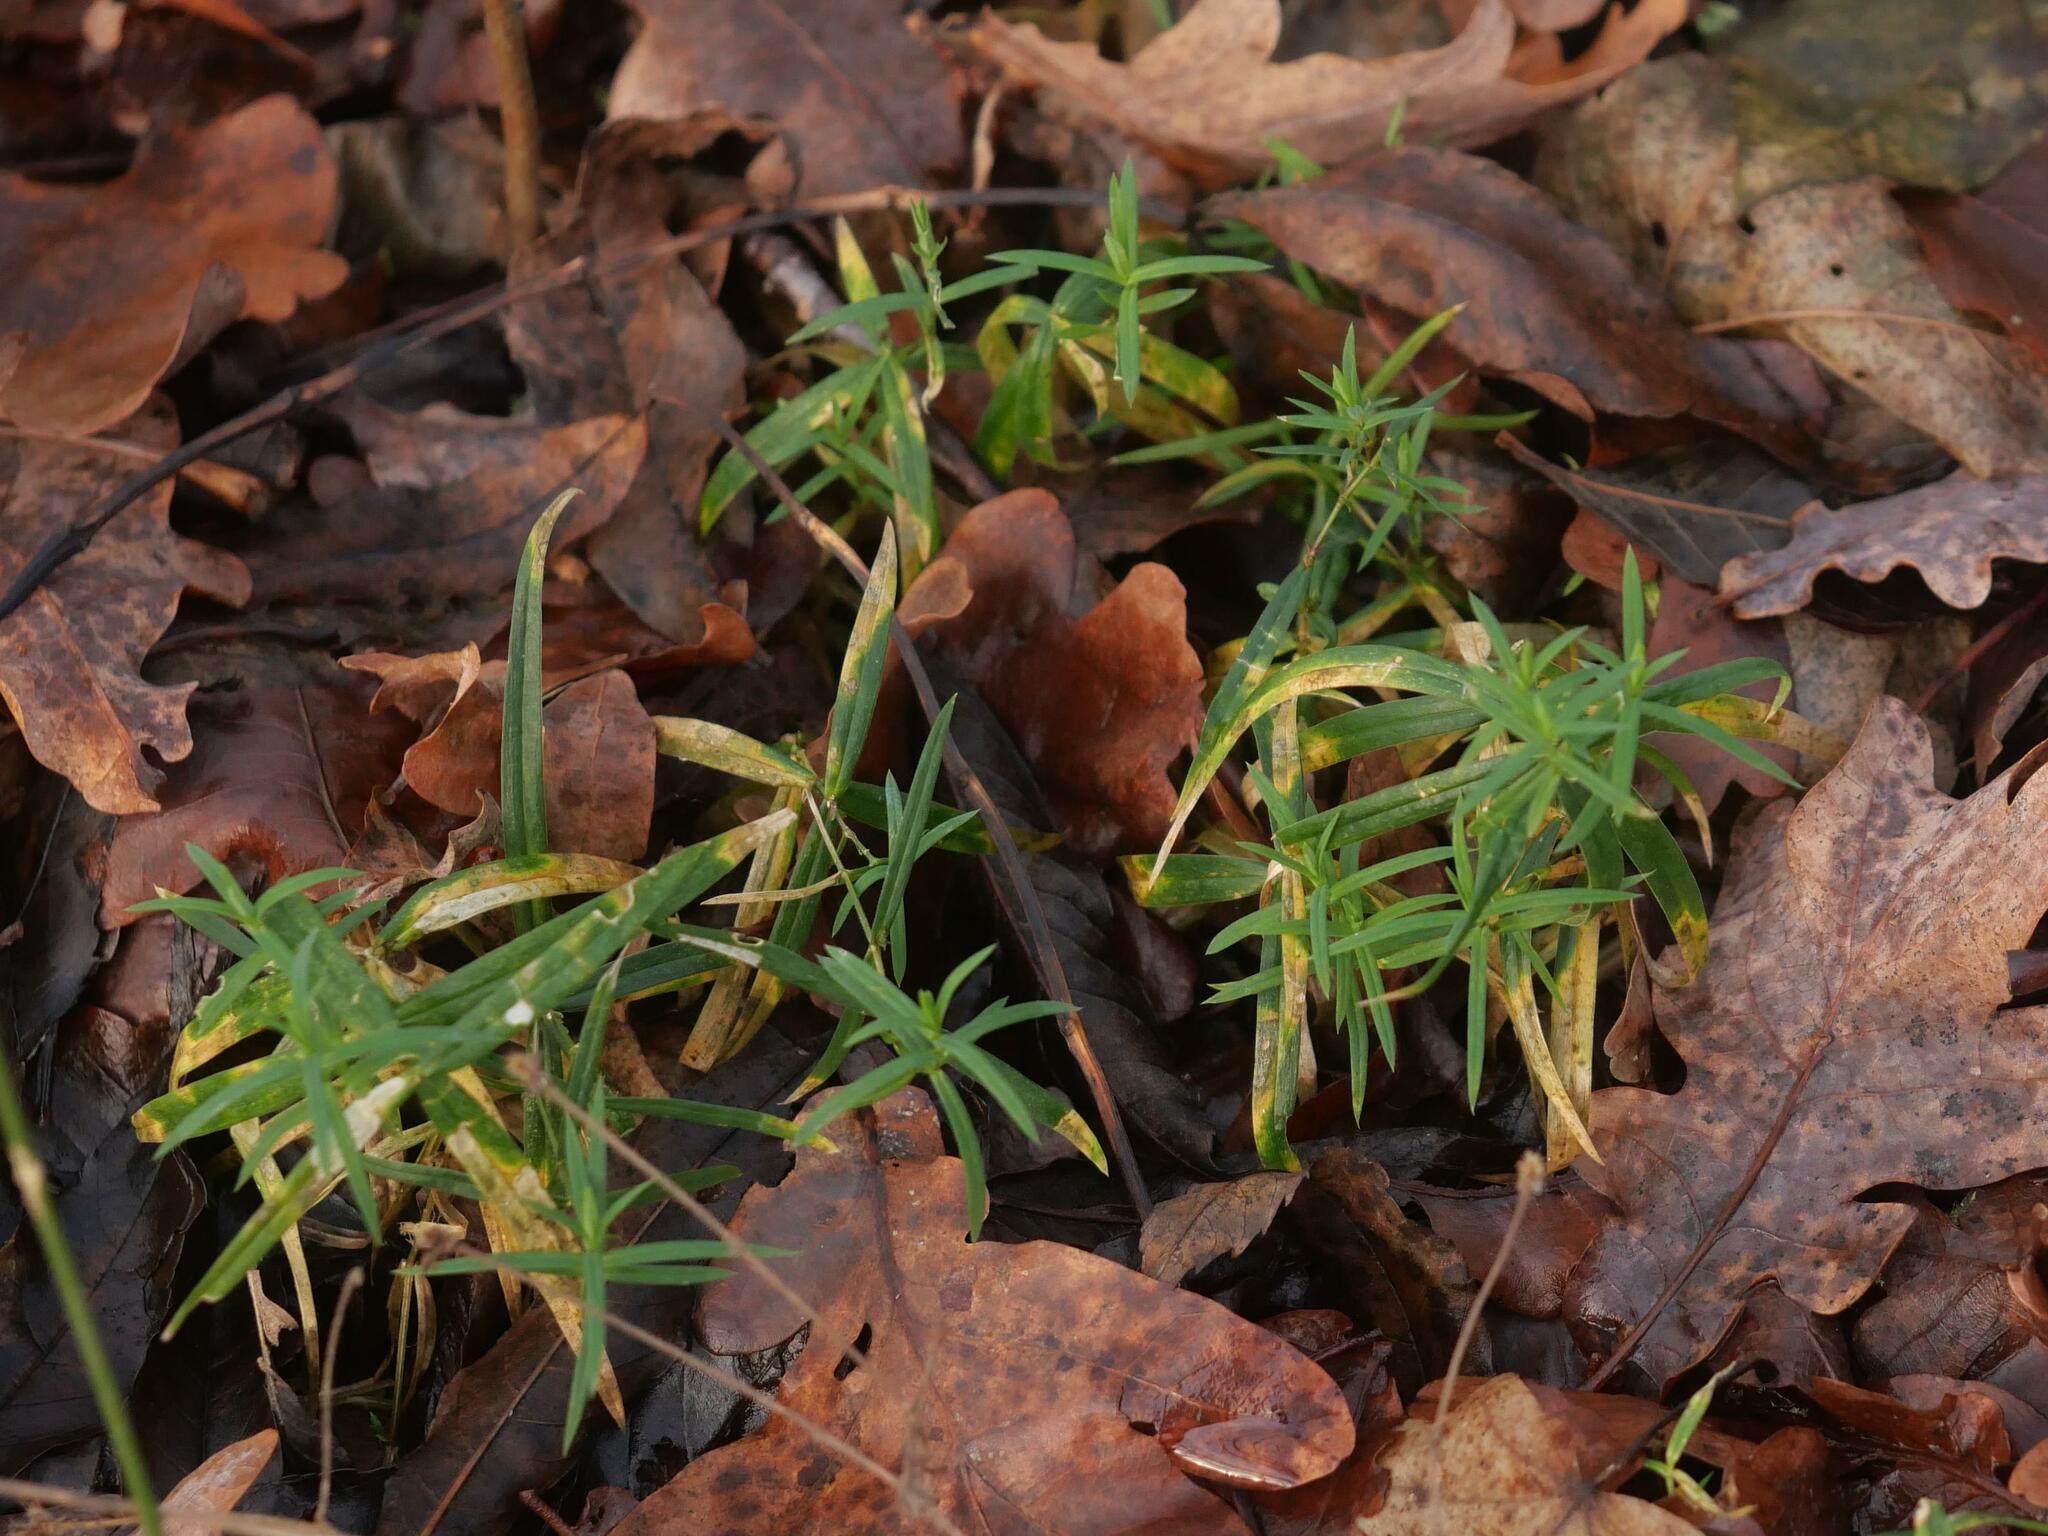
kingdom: Plantae
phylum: Tracheophyta
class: Magnoliopsida
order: Caryophyllales
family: Caryophyllaceae
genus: Rabelera
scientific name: Rabelera holostea
